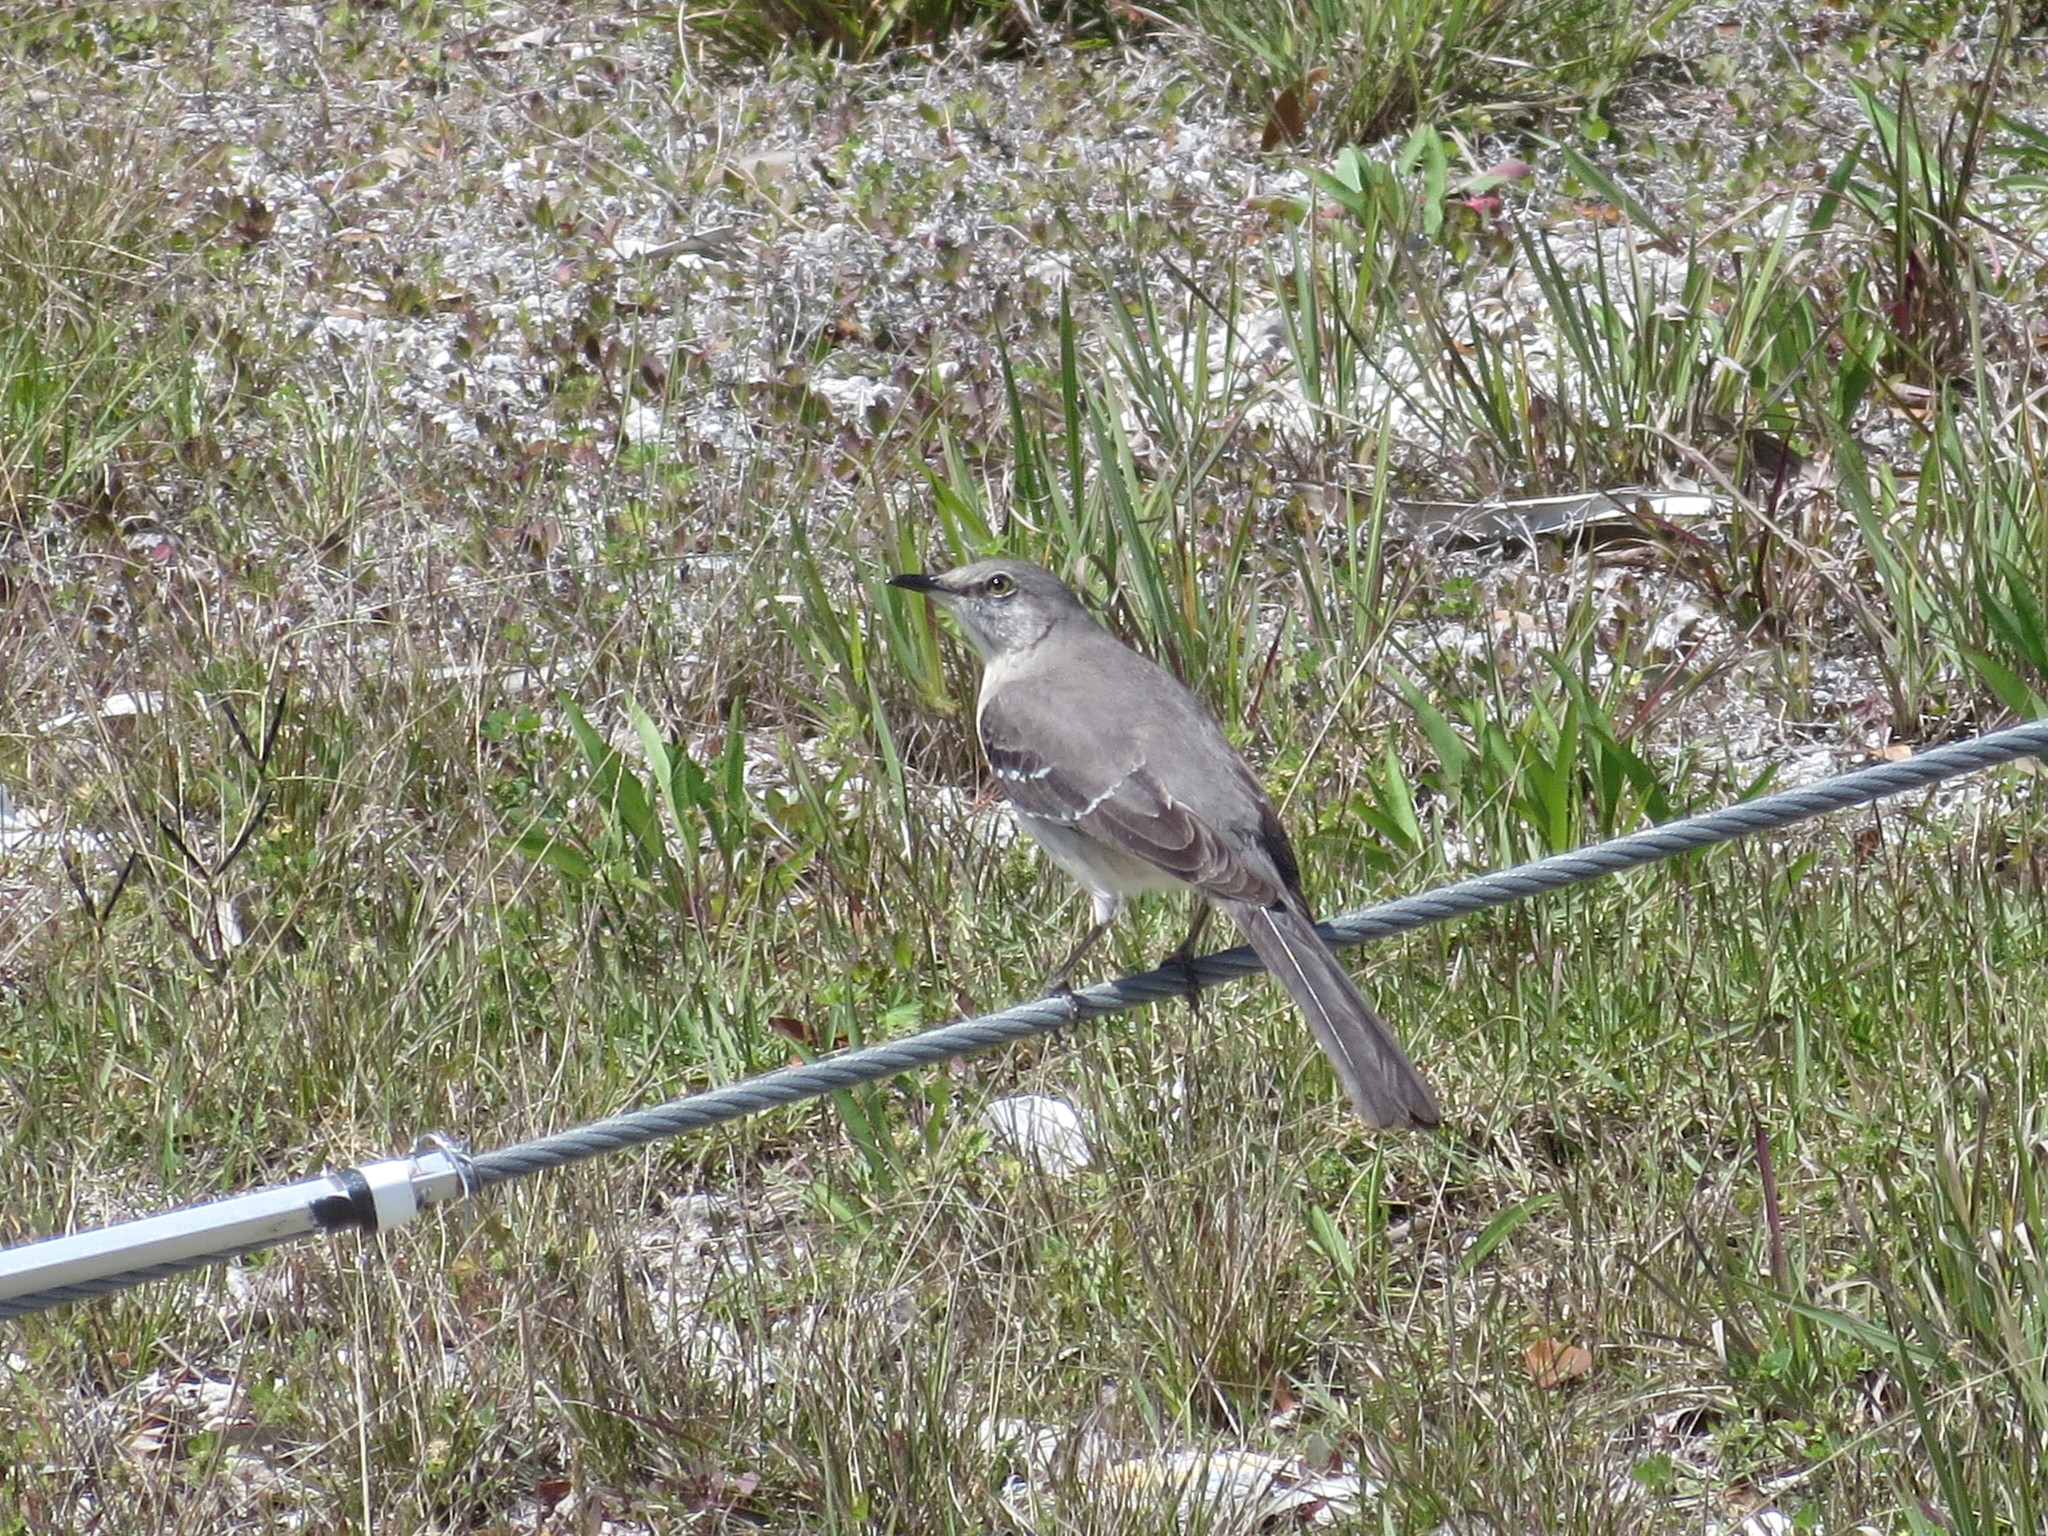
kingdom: Animalia
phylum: Chordata
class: Aves
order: Passeriformes
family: Mimidae
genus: Mimus
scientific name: Mimus polyglottos
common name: Northern mockingbird
